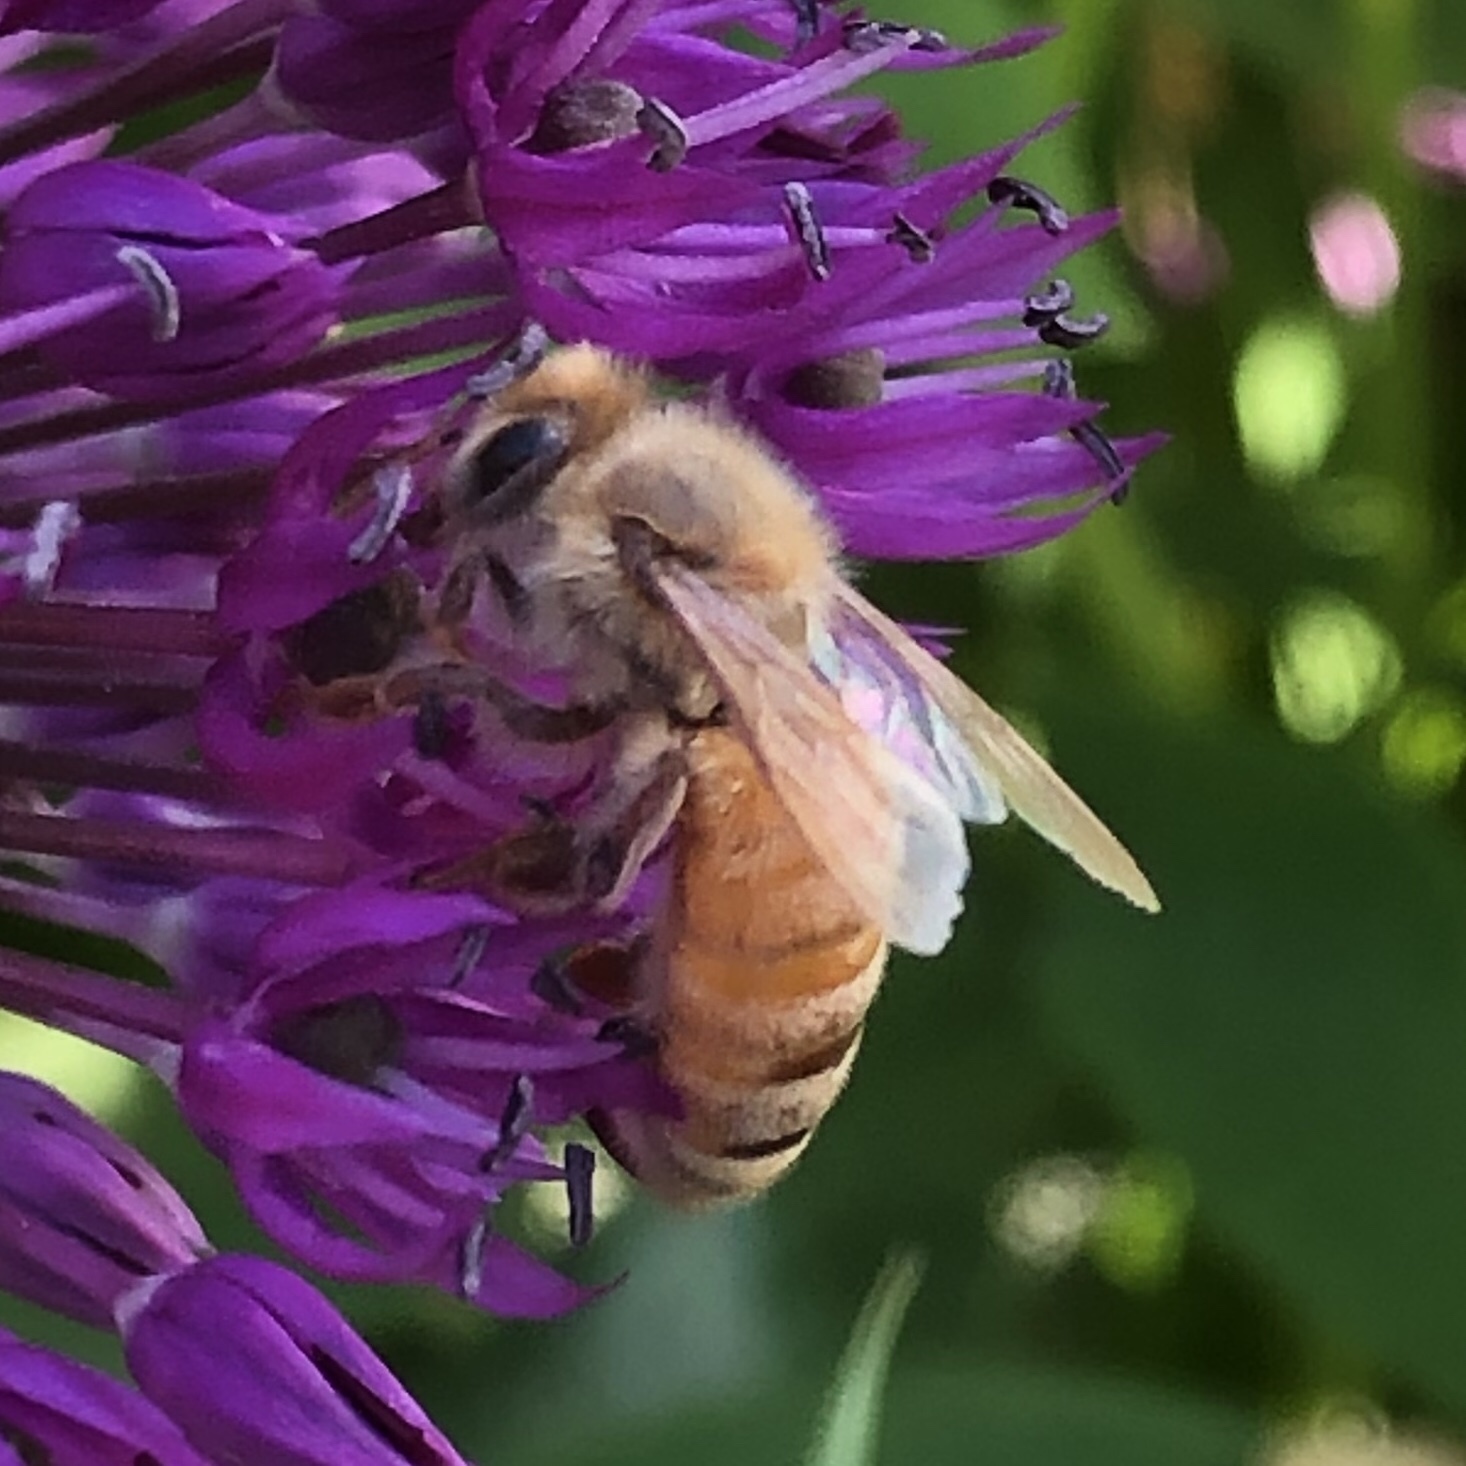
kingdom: Animalia
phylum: Arthropoda
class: Insecta
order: Hymenoptera
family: Apidae
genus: Apis
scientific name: Apis mellifera
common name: Honey bee
